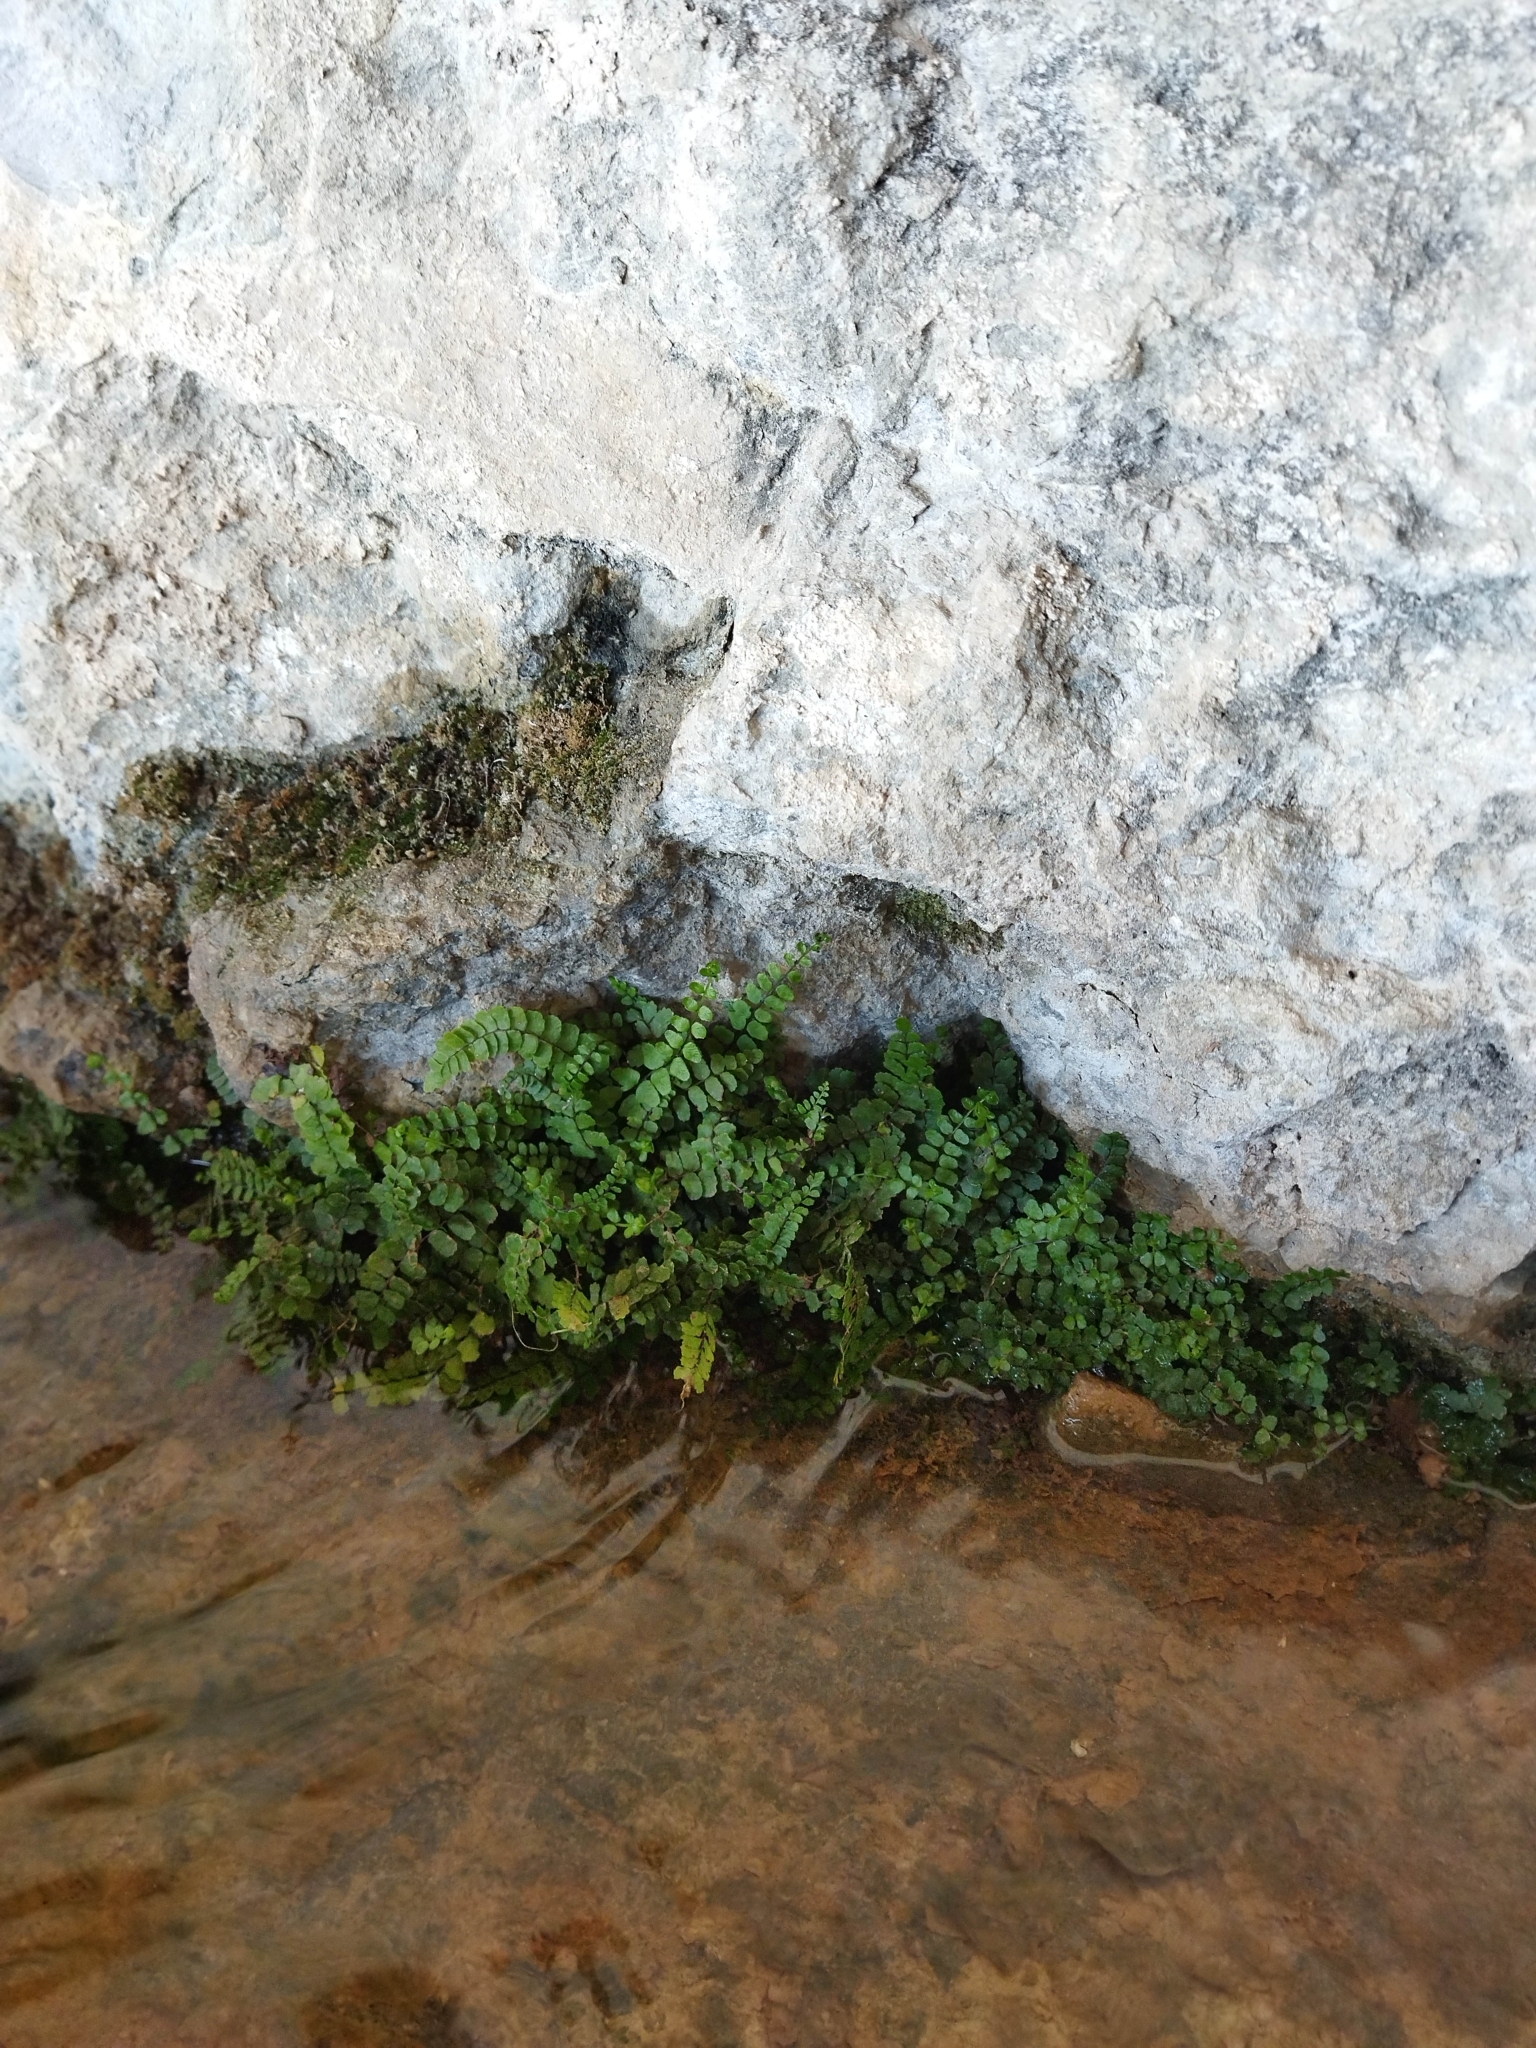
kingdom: Plantae
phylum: Tracheophyta
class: Polypodiopsida
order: Polypodiales
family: Aspleniaceae
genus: Asplenium
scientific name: Asplenium trichomanes
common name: Maidenhair spleenwort
